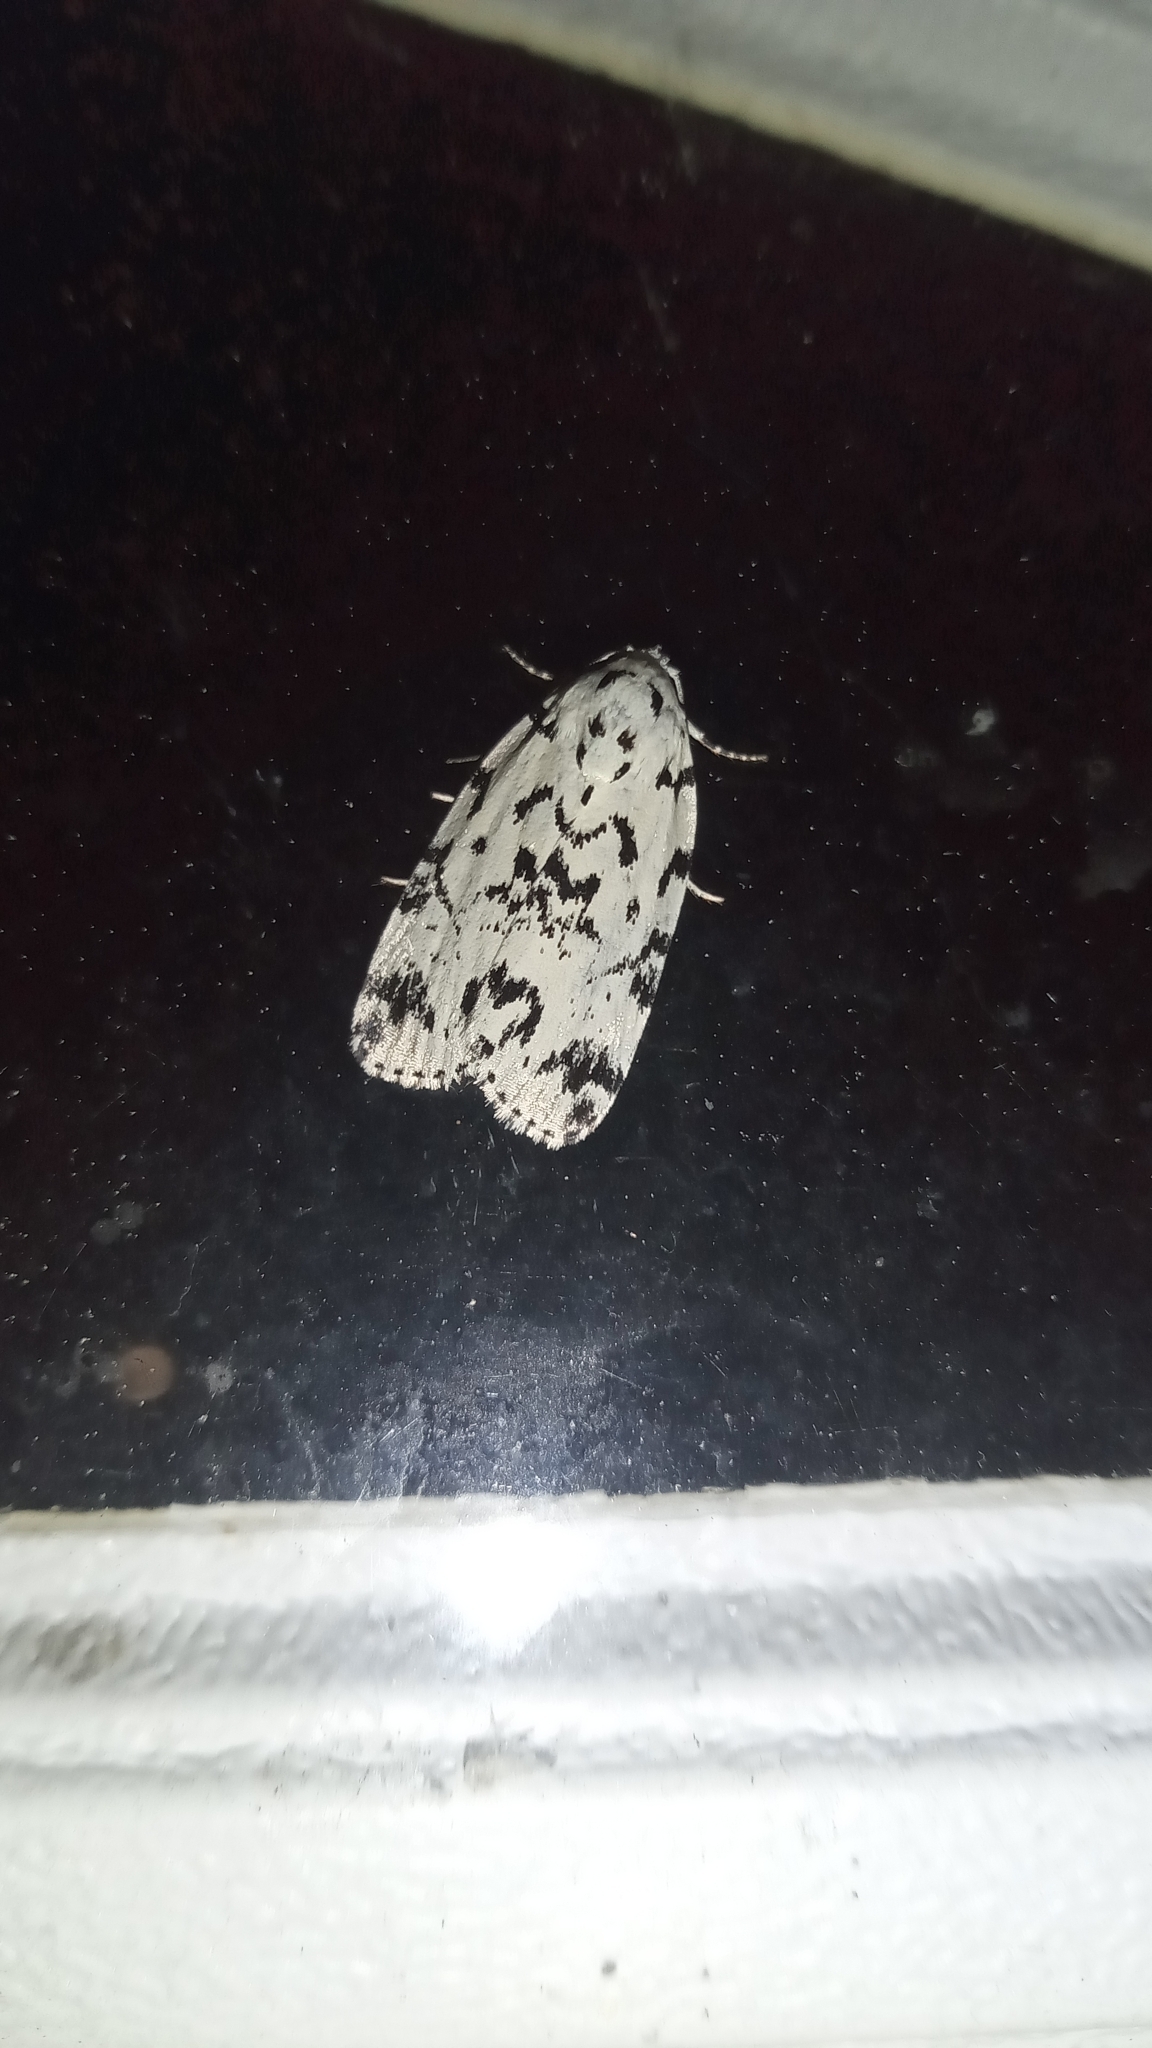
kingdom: Animalia
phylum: Arthropoda
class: Insecta
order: Lepidoptera
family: Noctuidae
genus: Polygrammate
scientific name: Polygrammate hebraeicum
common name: Hebrew moth
